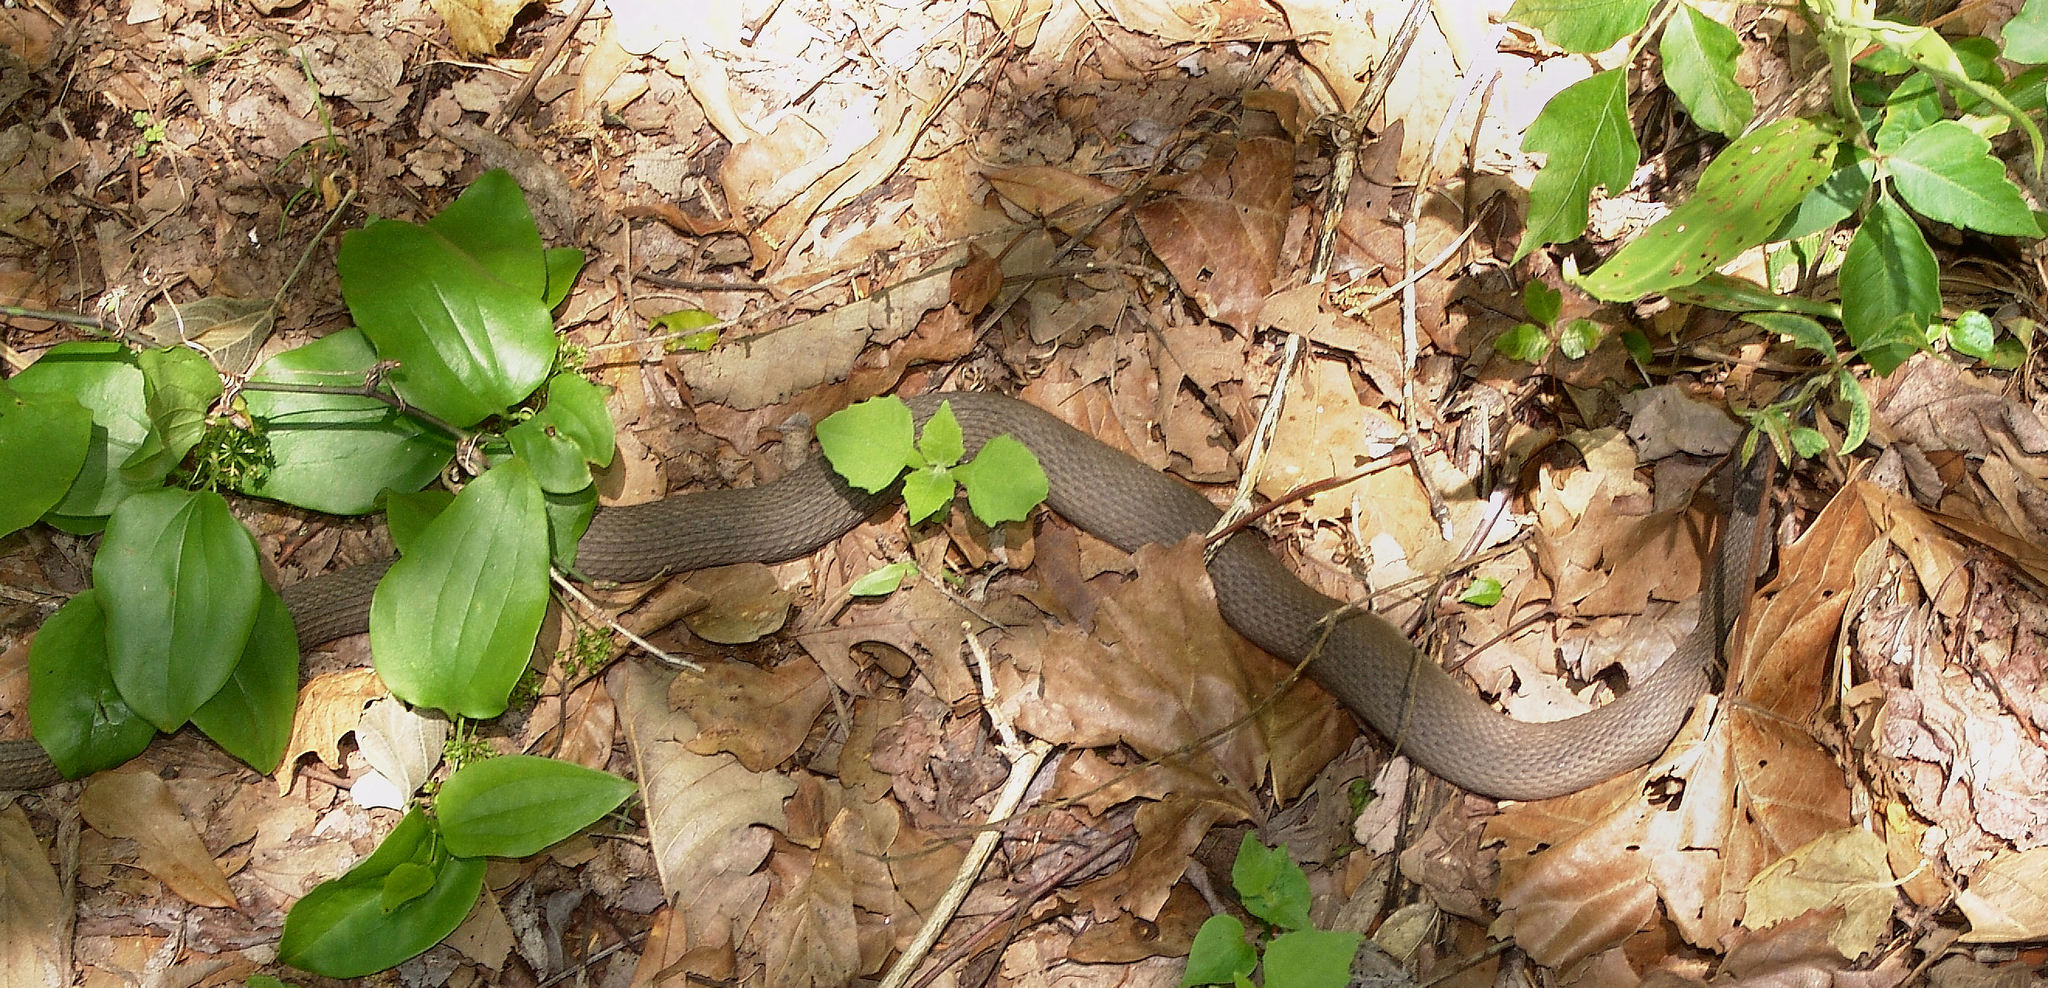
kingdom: Animalia
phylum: Chordata
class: Squamata
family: Colubridae
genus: Nerodia
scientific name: Nerodia erythrogaster
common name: Plainbelly water snake
